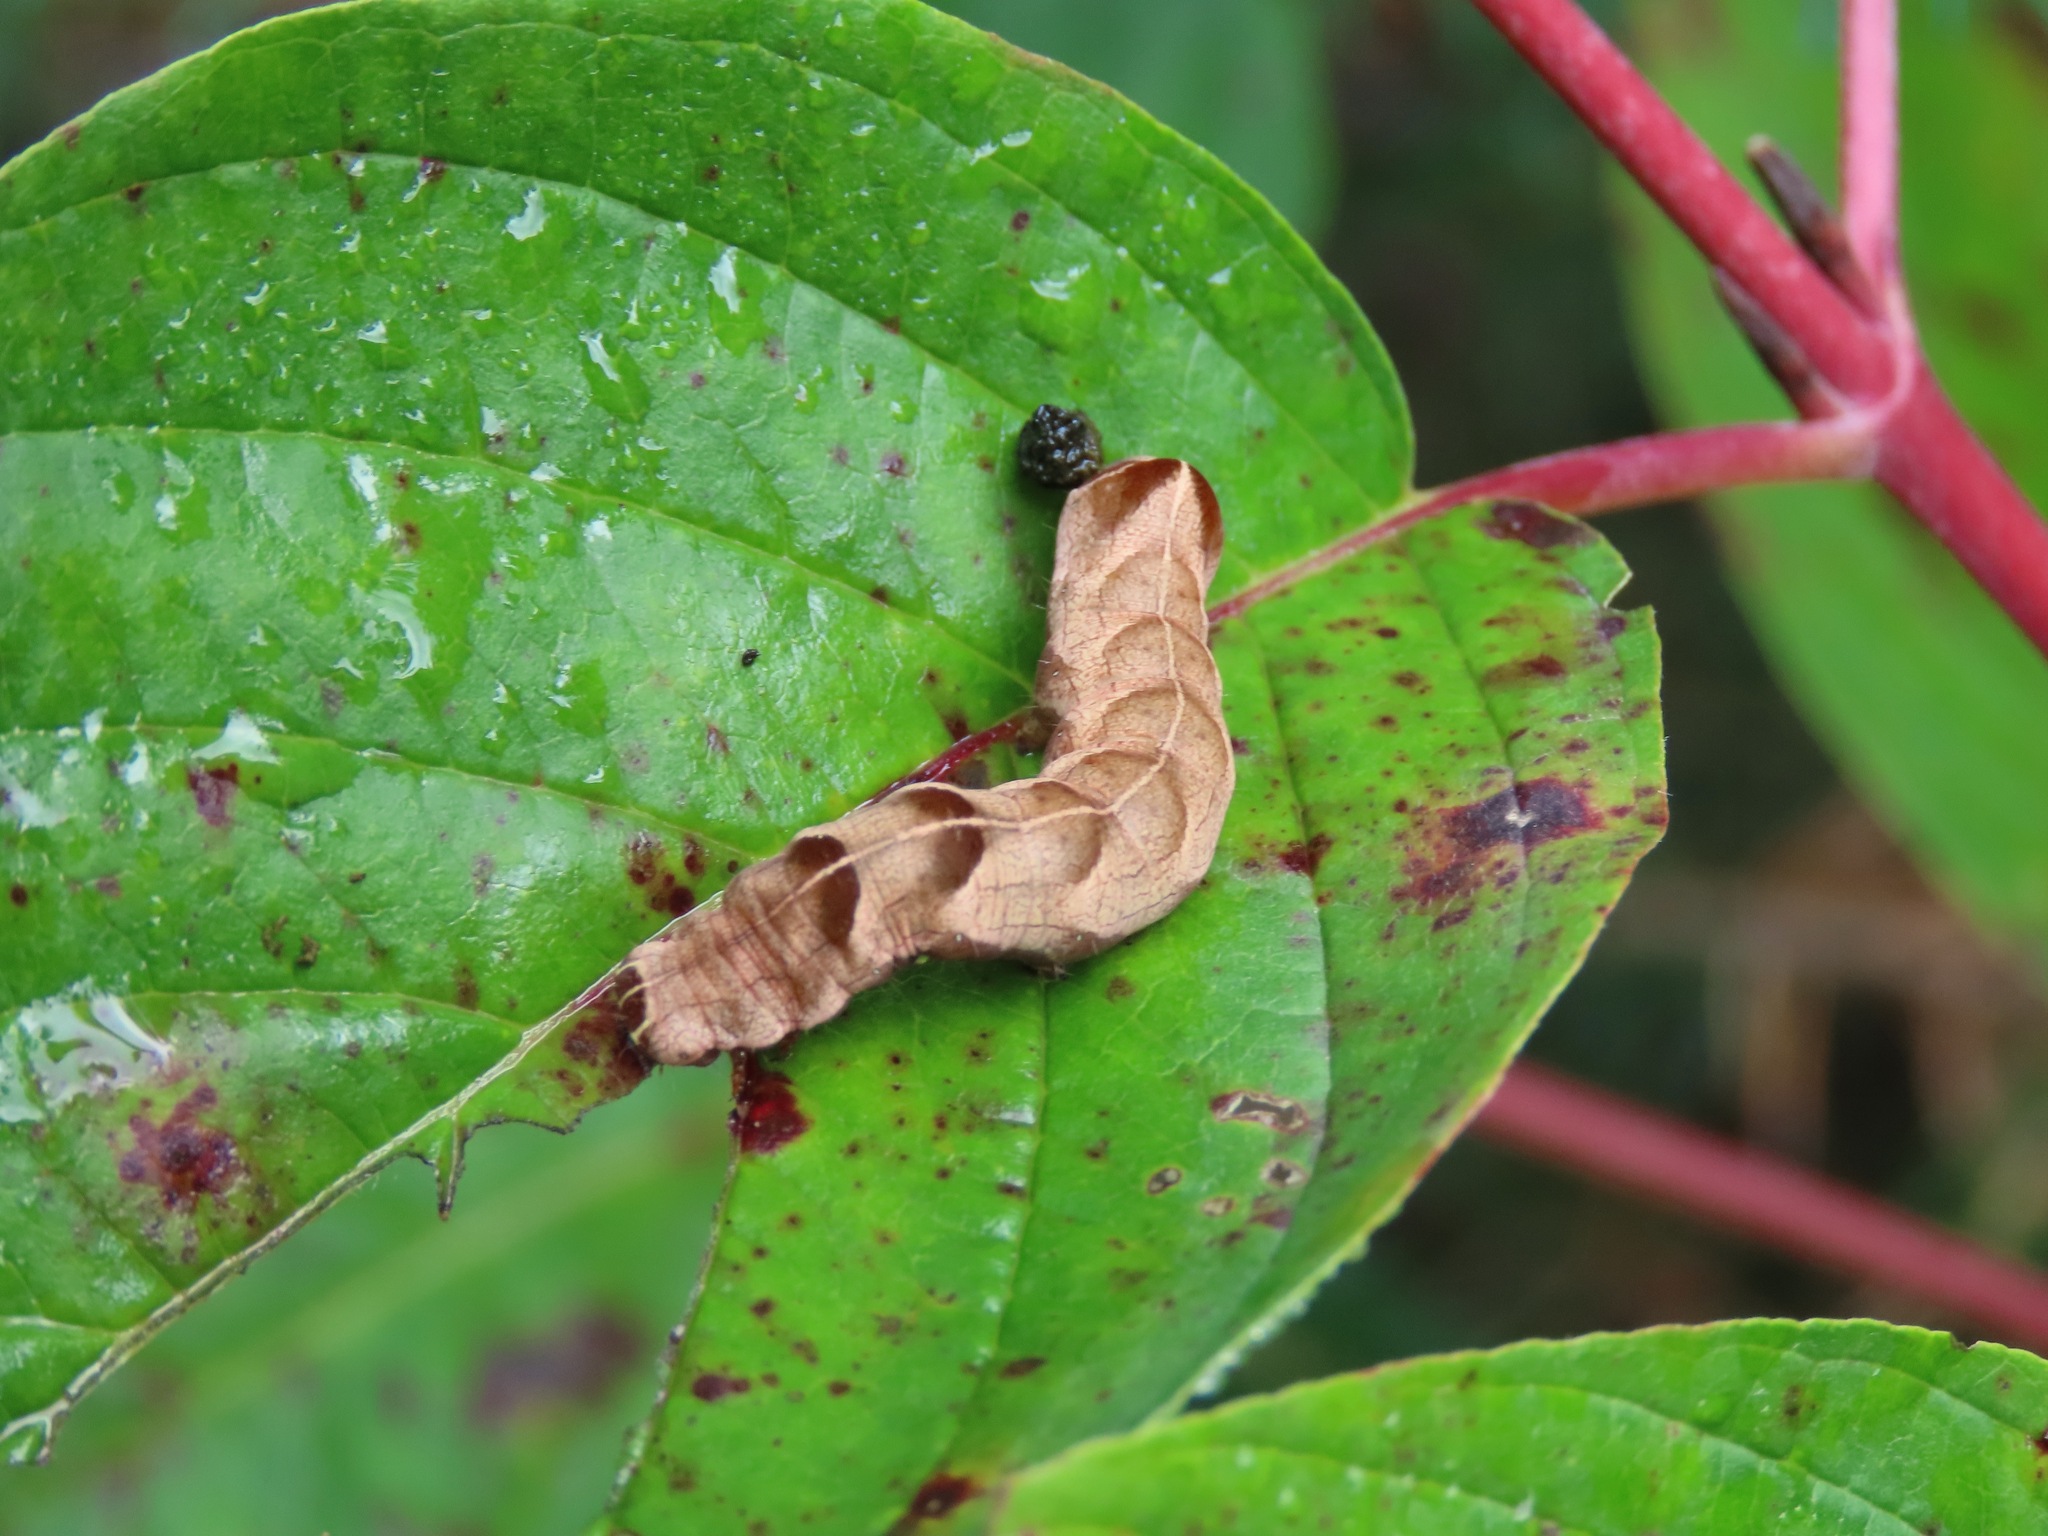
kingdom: Animalia
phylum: Arthropoda
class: Insecta
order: Lepidoptera
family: Noctuidae
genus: Melanchra
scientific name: Melanchra adjuncta
